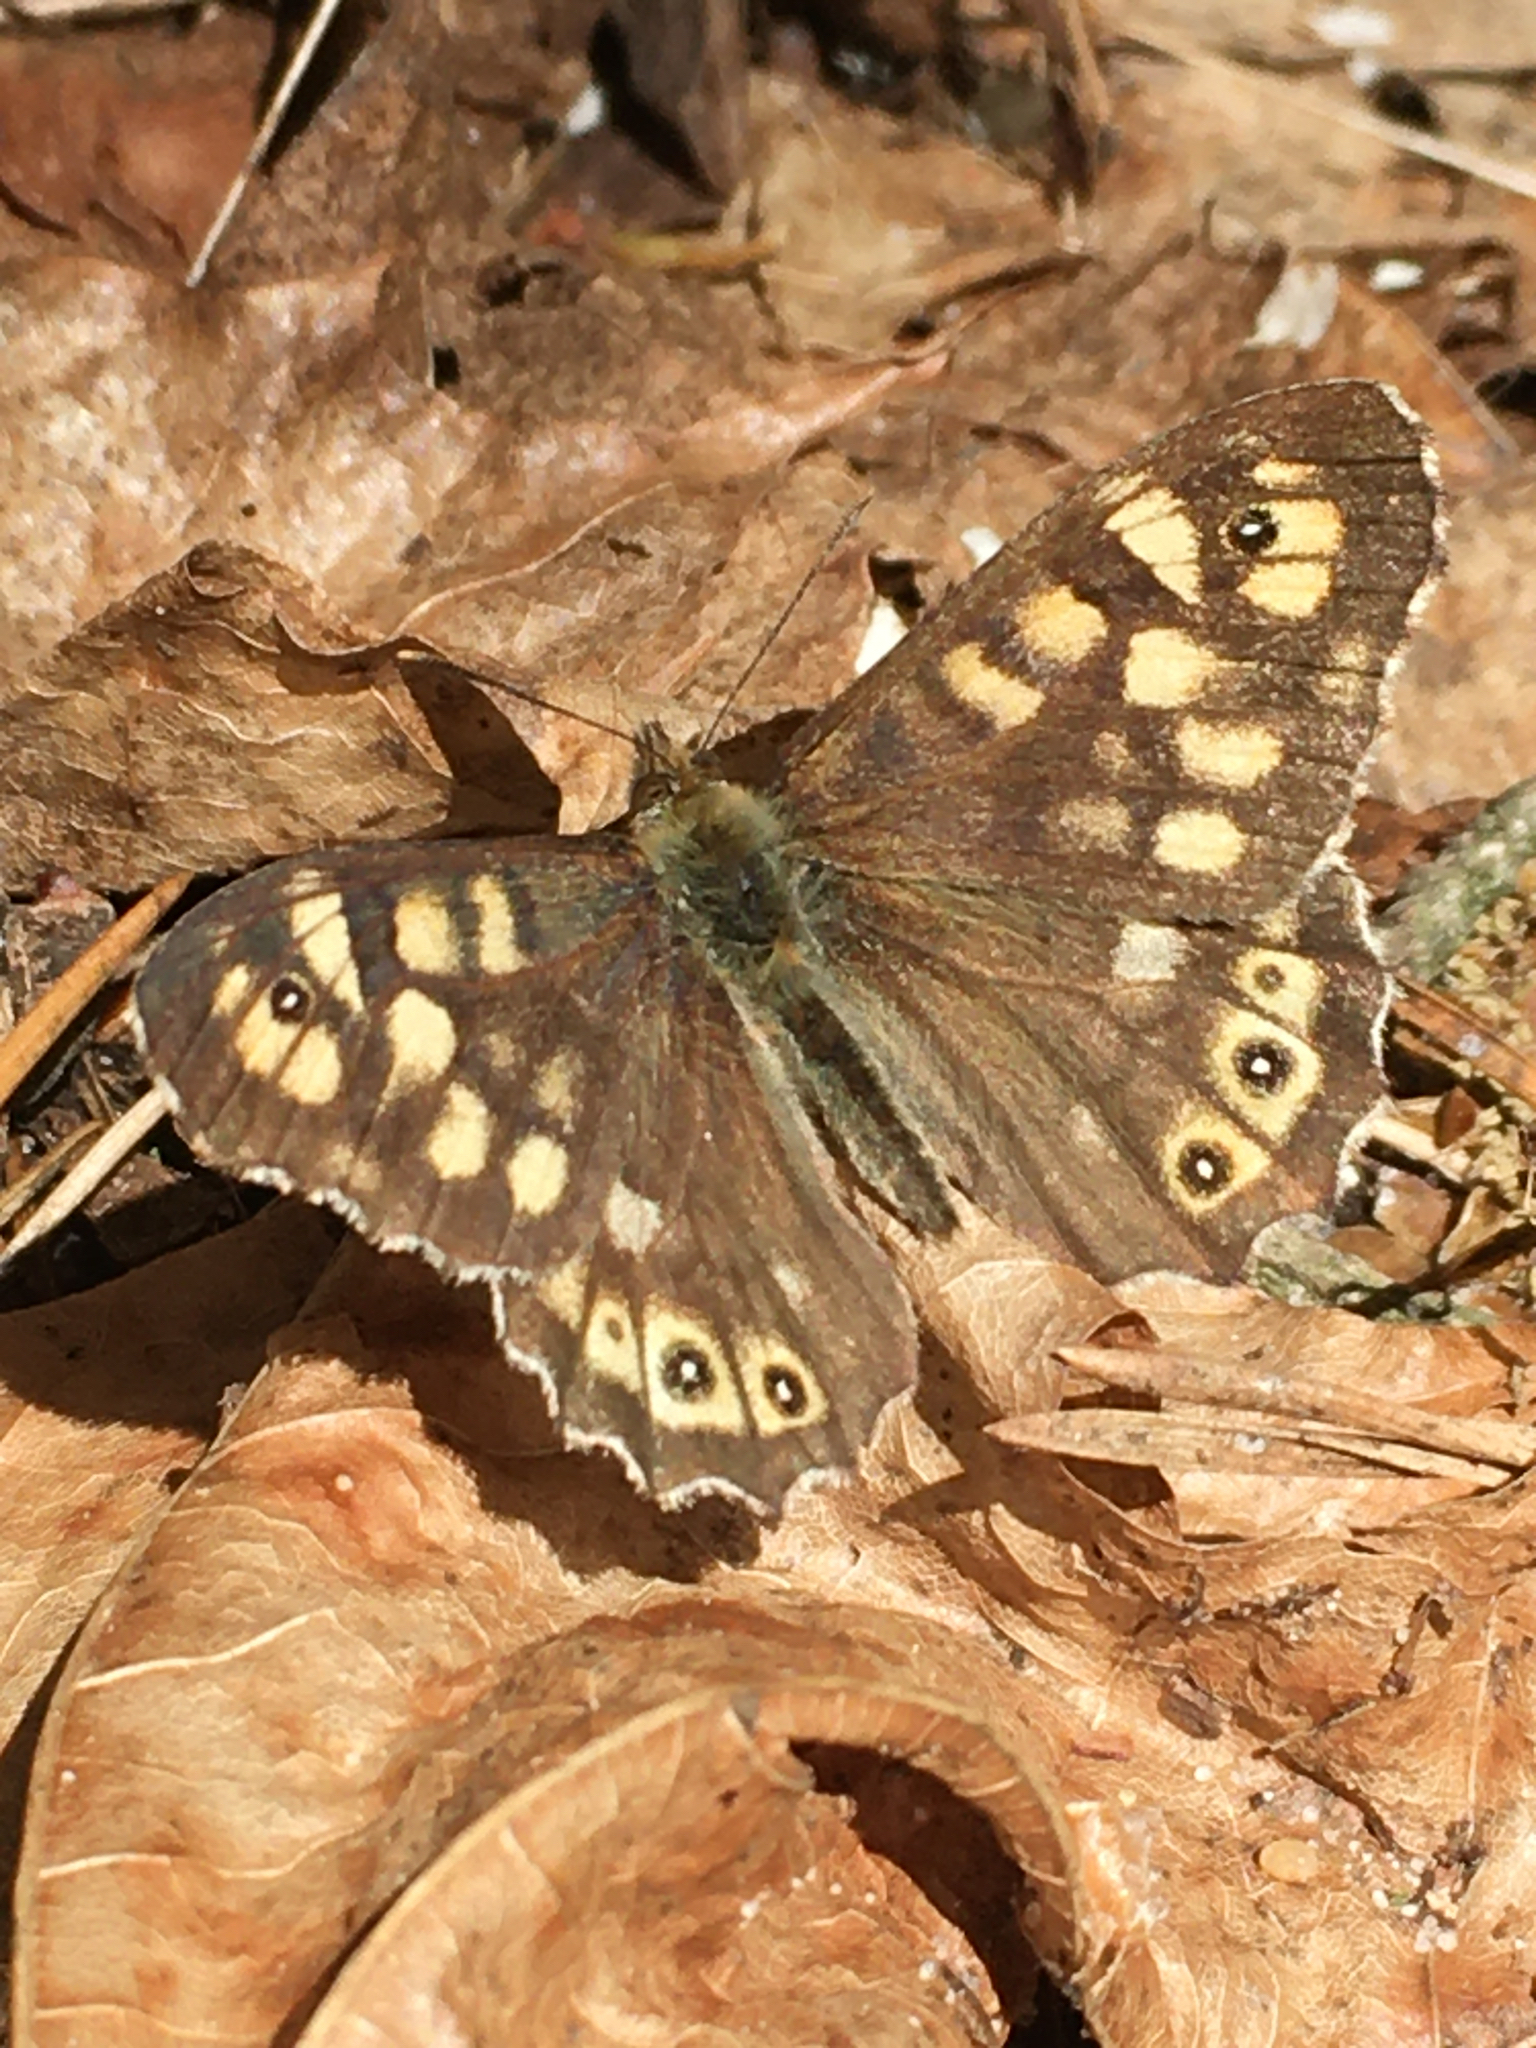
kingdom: Animalia
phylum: Arthropoda
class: Insecta
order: Lepidoptera
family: Nymphalidae
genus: Pararge
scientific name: Pararge aegeria
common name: Speckled wood
